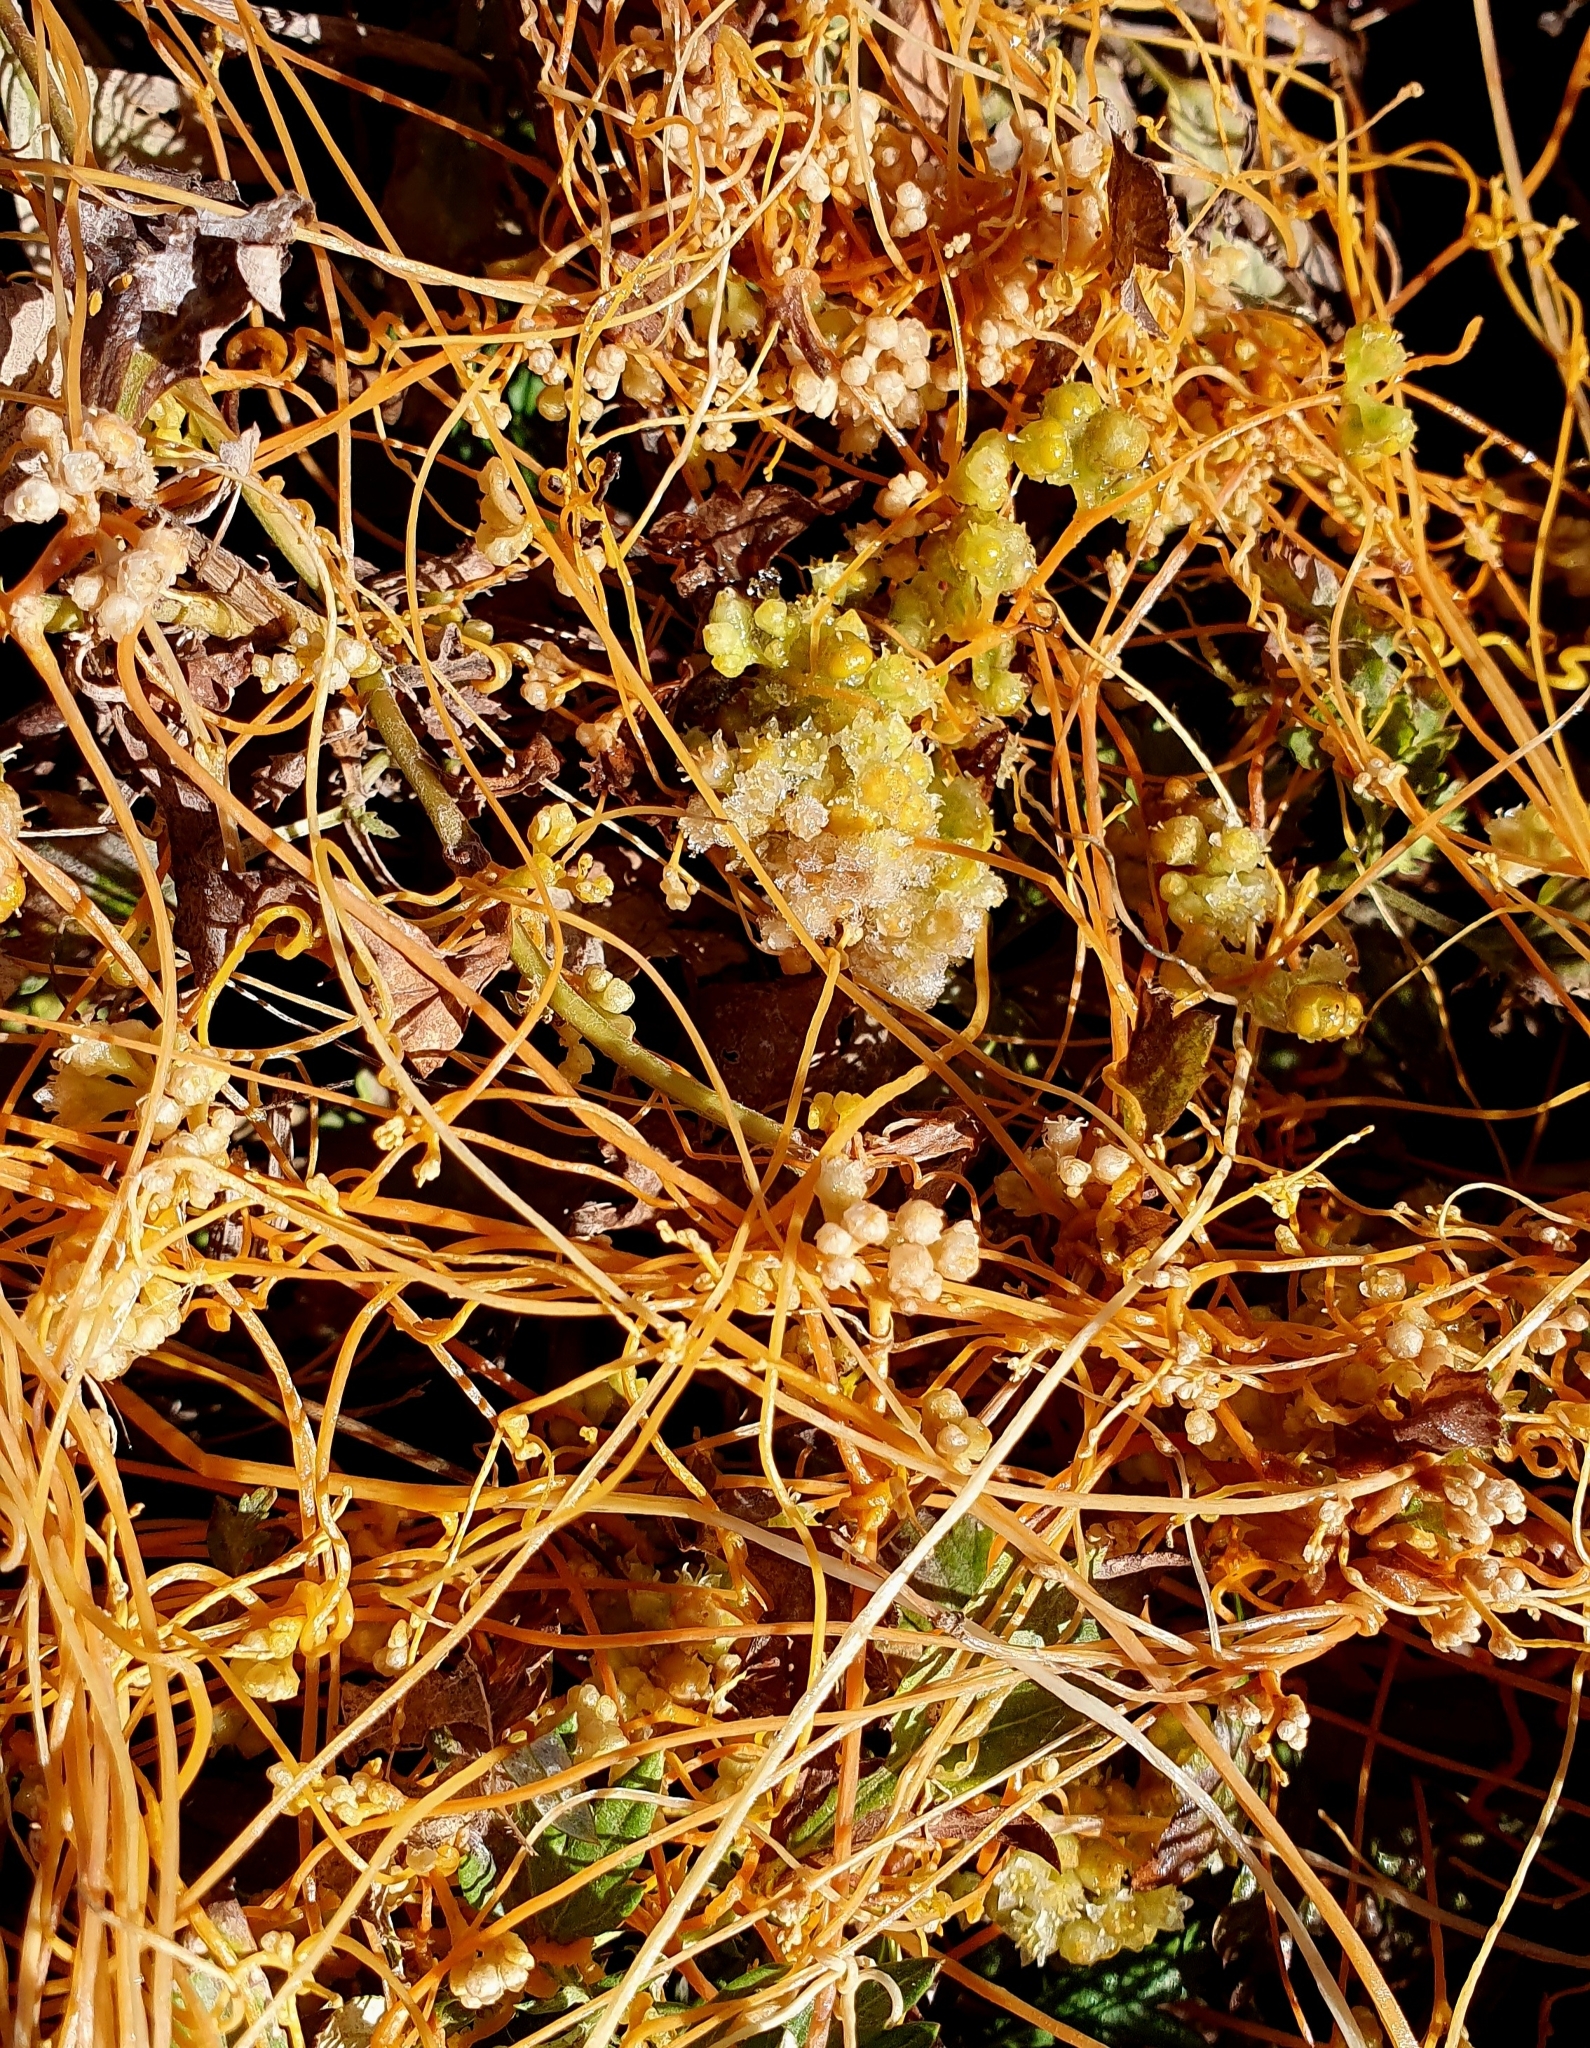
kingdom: Plantae
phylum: Tracheophyta
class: Magnoliopsida
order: Solanales
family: Convolvulaceae
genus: Cuscuta
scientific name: Cuscuta campestris
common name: Yellow dodder
